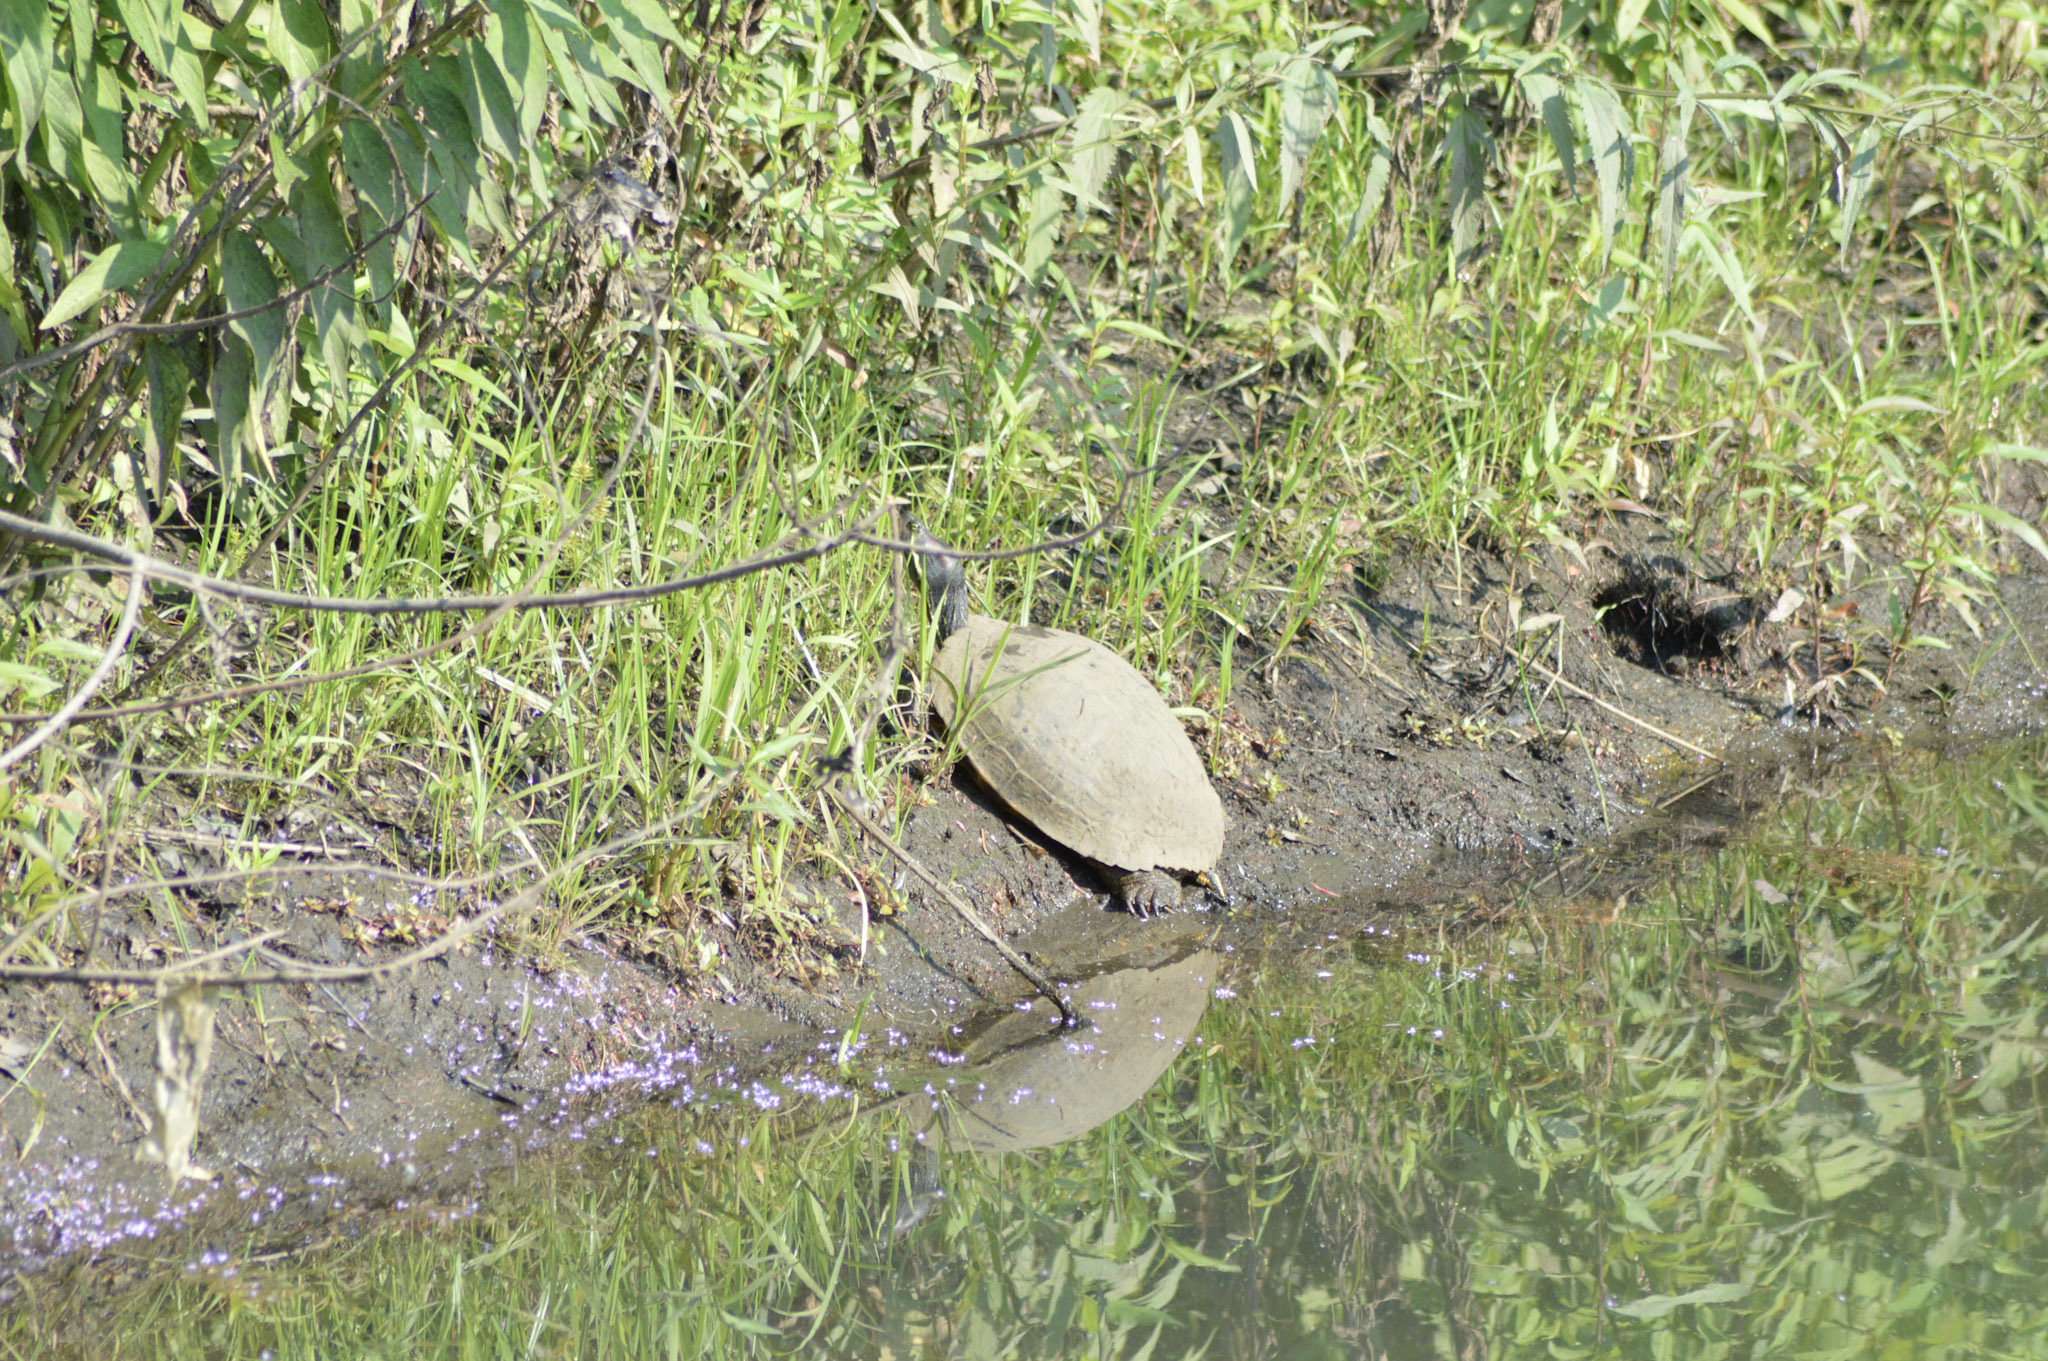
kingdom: Animalia
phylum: Chordata
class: Testudines
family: Emydidae
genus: Trachemys
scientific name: Trachemys scripta
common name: Slider
